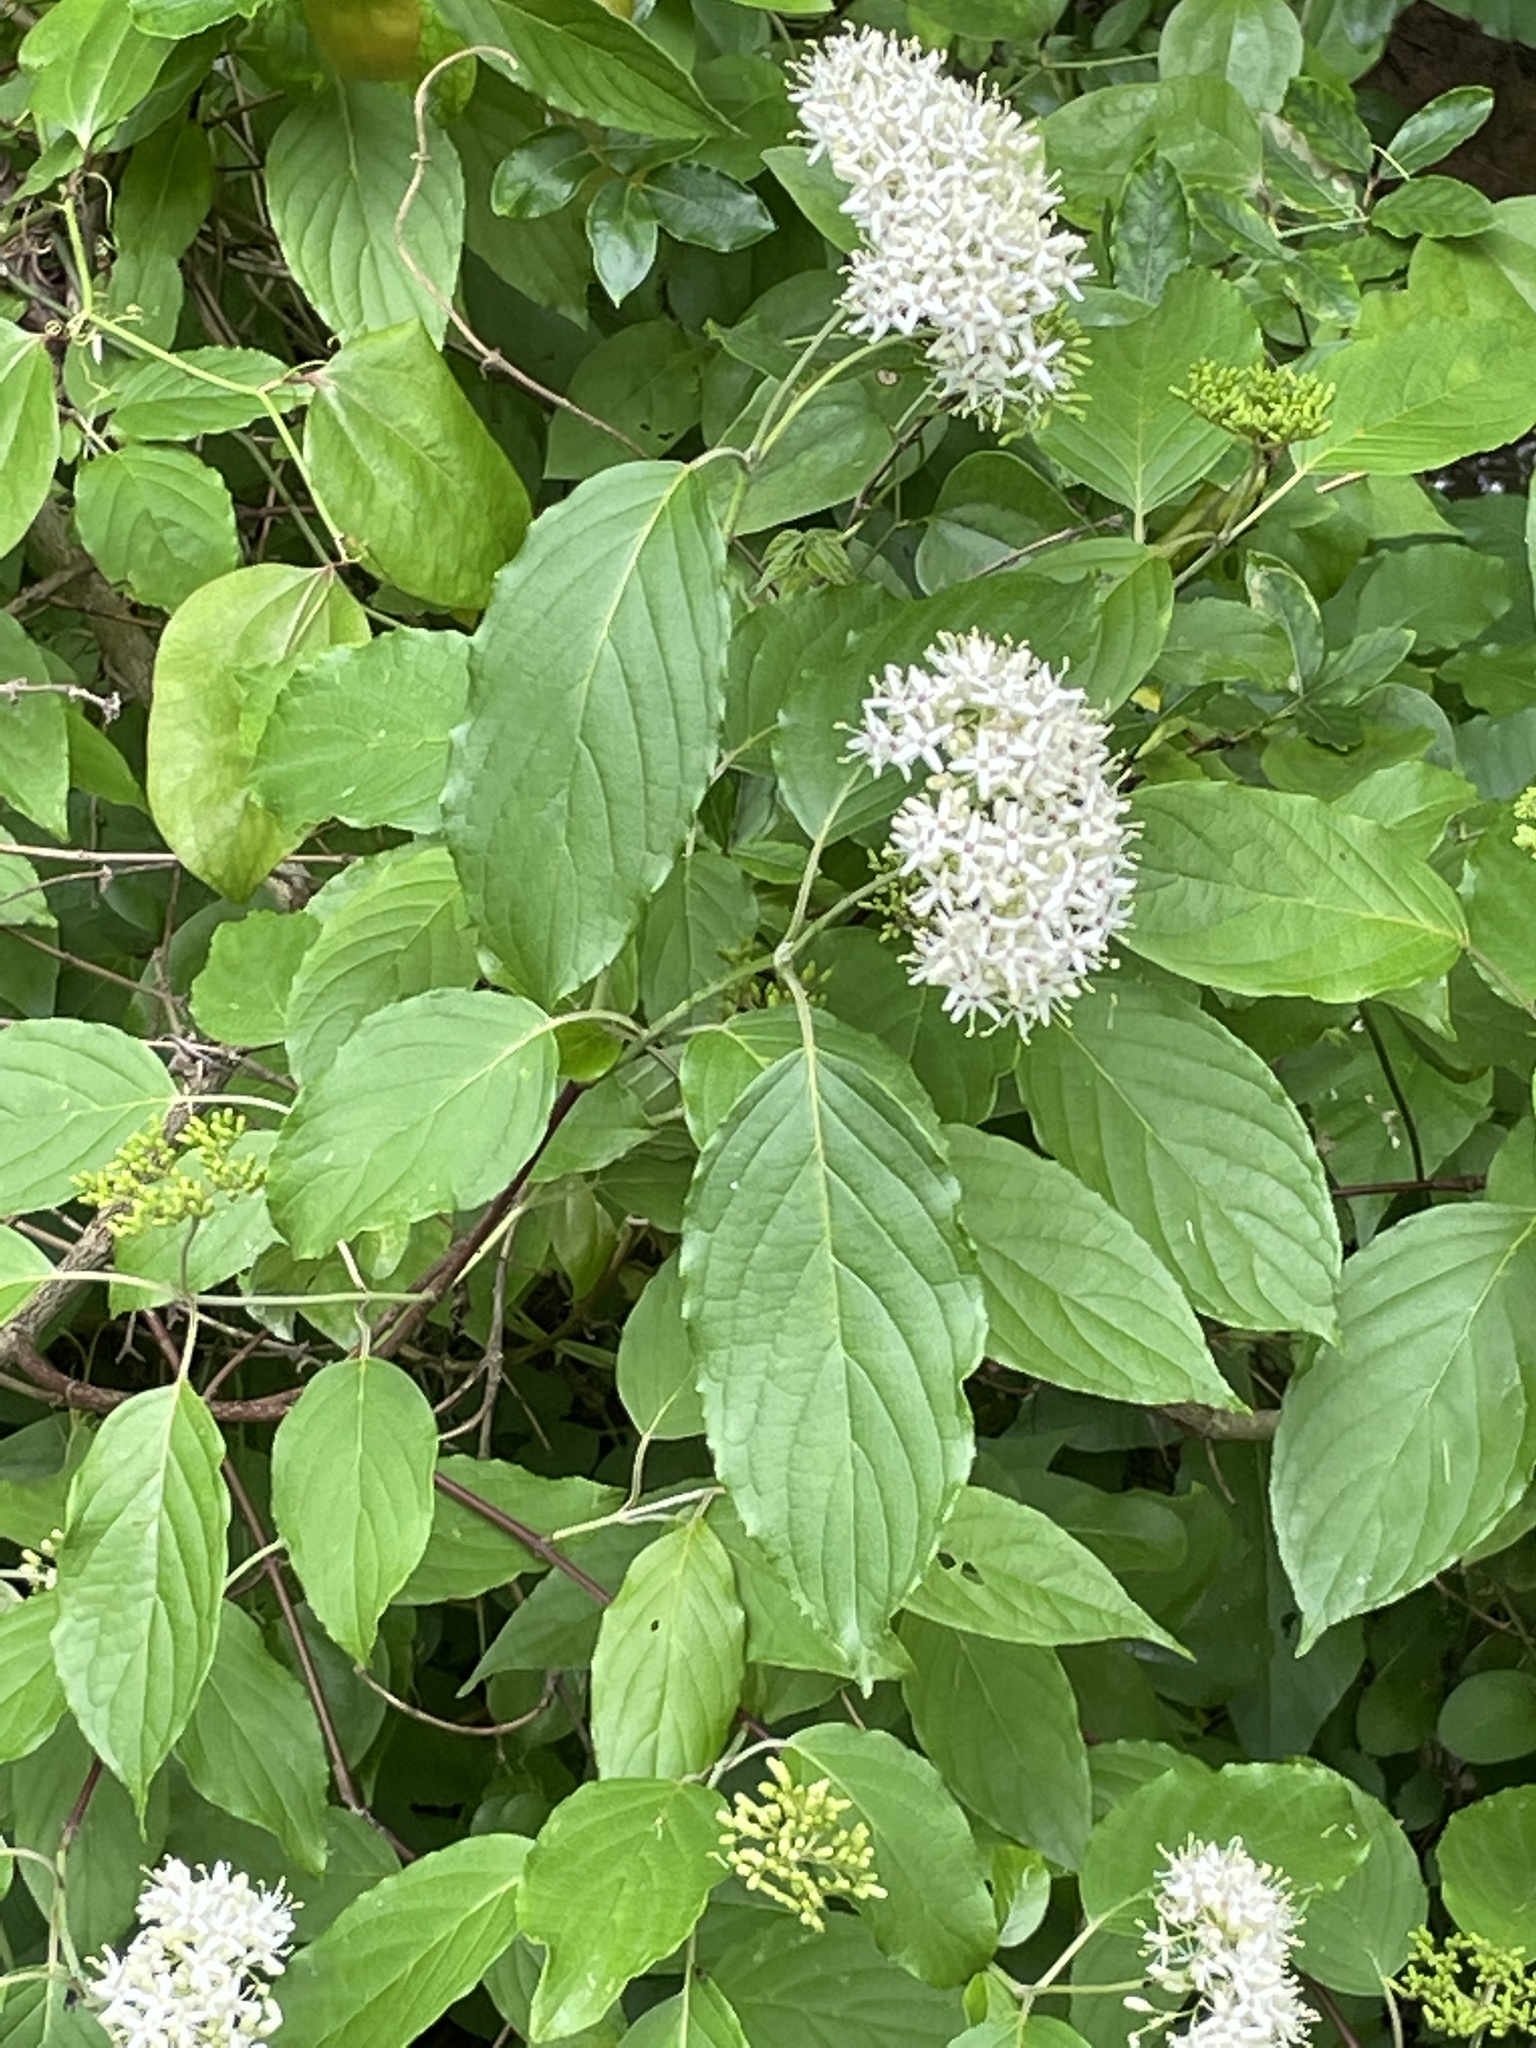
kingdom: Plantae
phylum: Tracheophyta
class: Magnoliopsida
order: Cornales
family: Cornaceae
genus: Cornus
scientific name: Cornus amomum
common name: Silky dogwood
